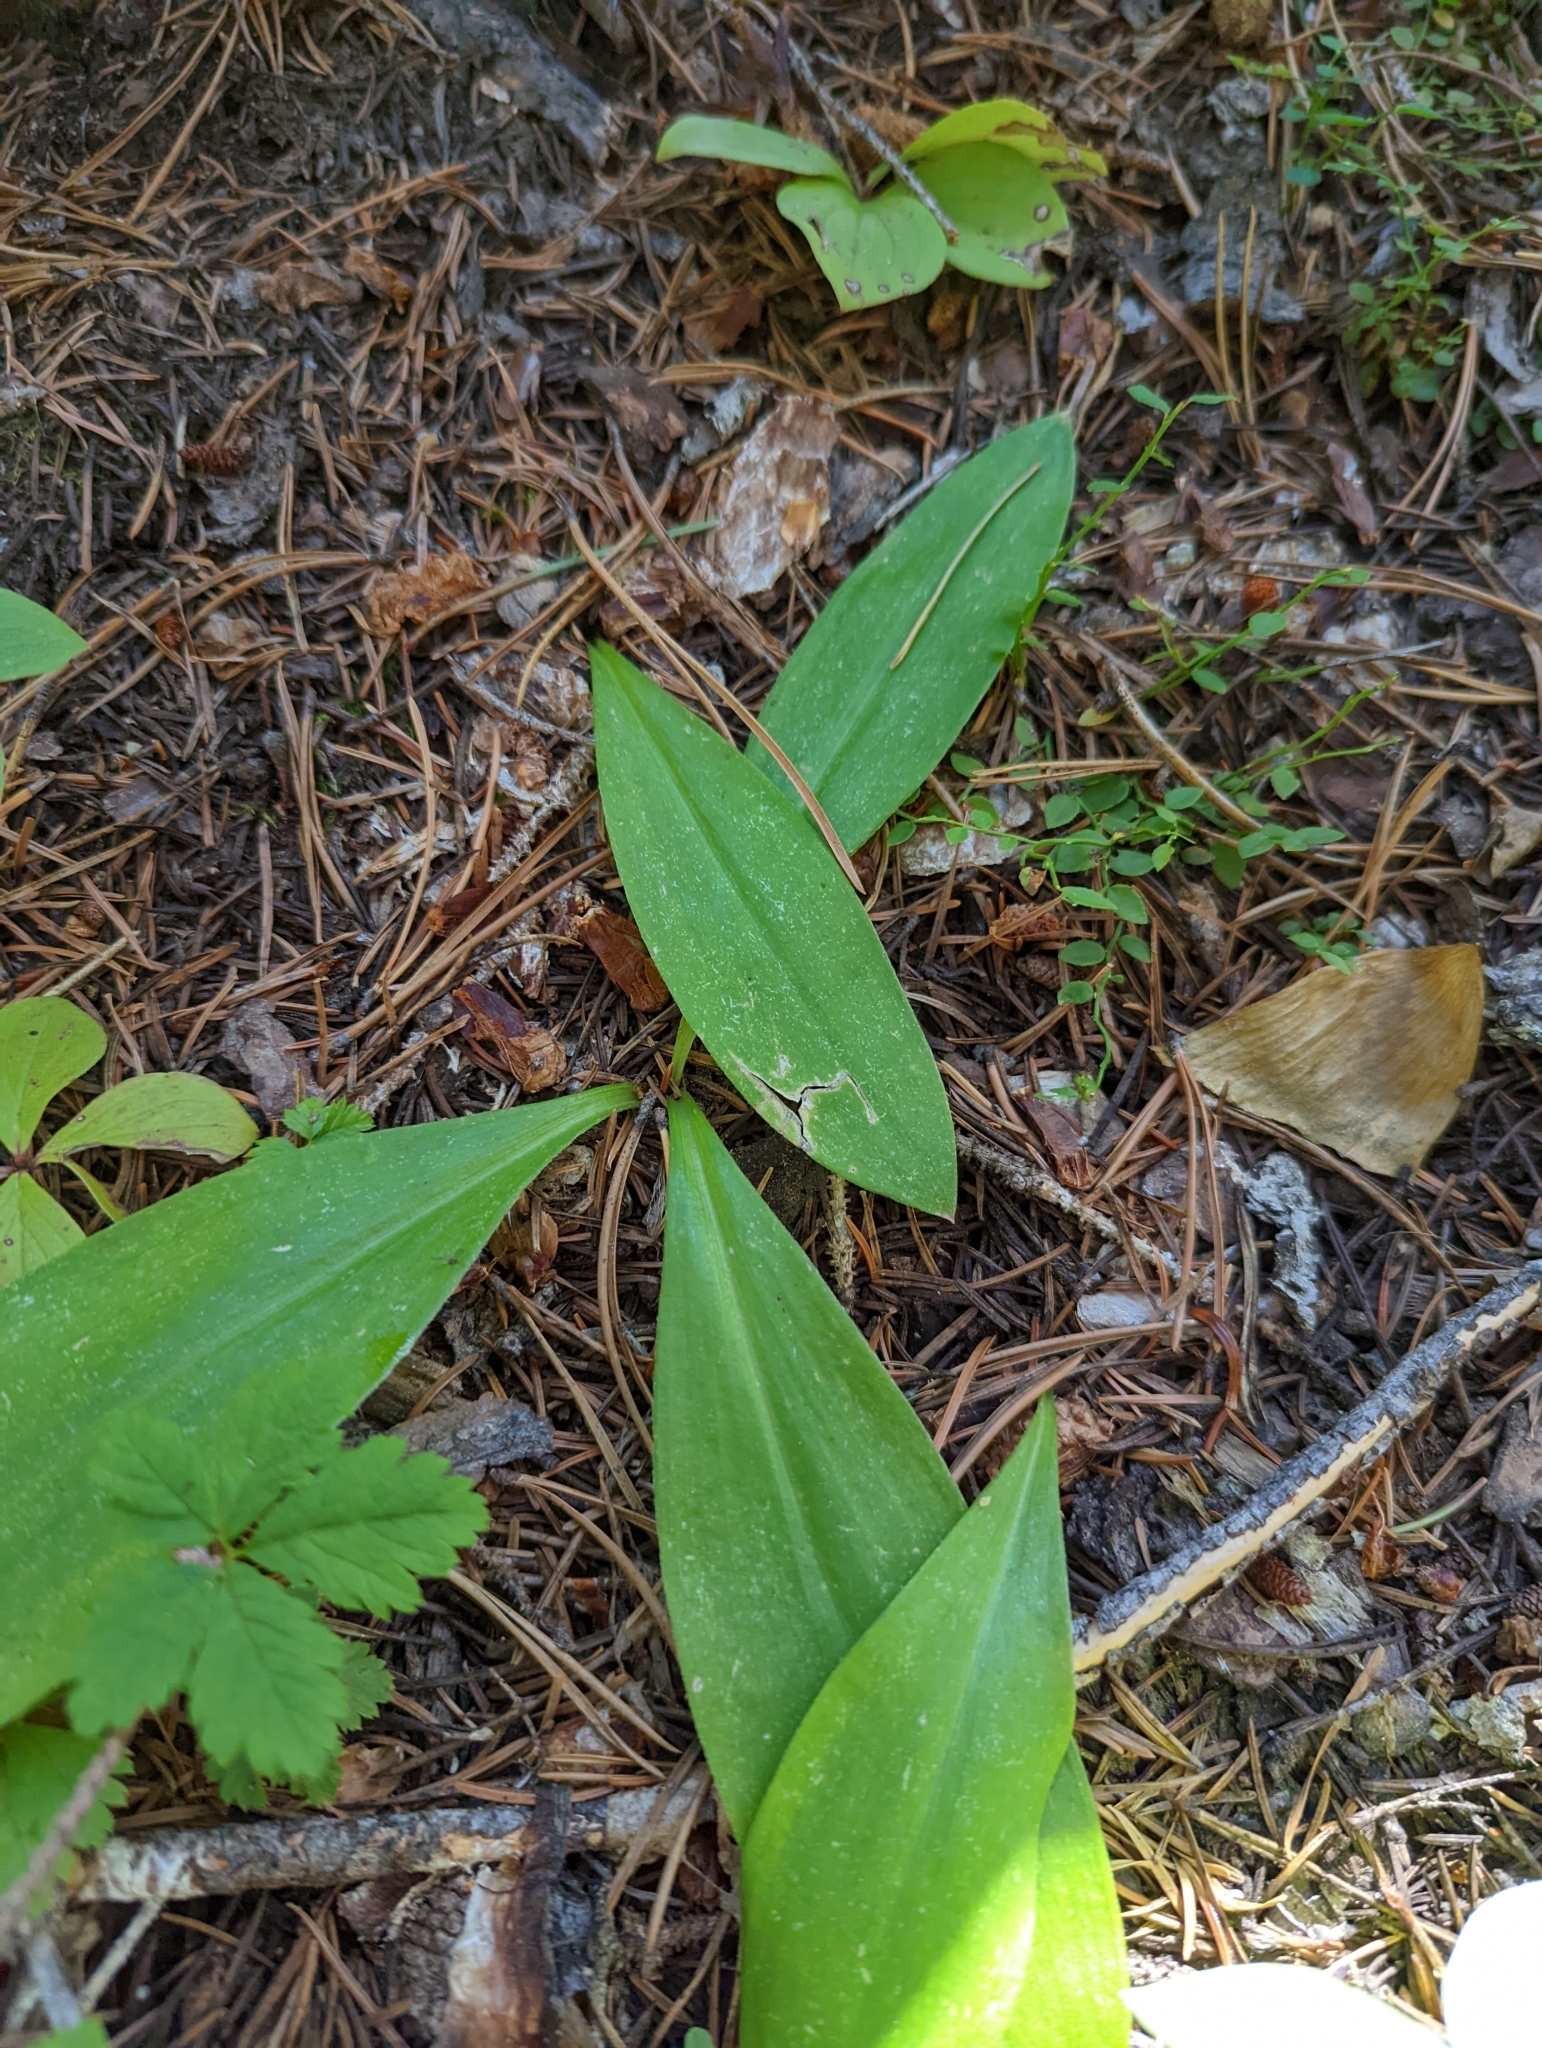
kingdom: Plantae
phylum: Tracheophyta
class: Liliopsida
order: Liliales
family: Liliaceae
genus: Clintonia
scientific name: Clintonia uniflora
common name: Queen's cup
